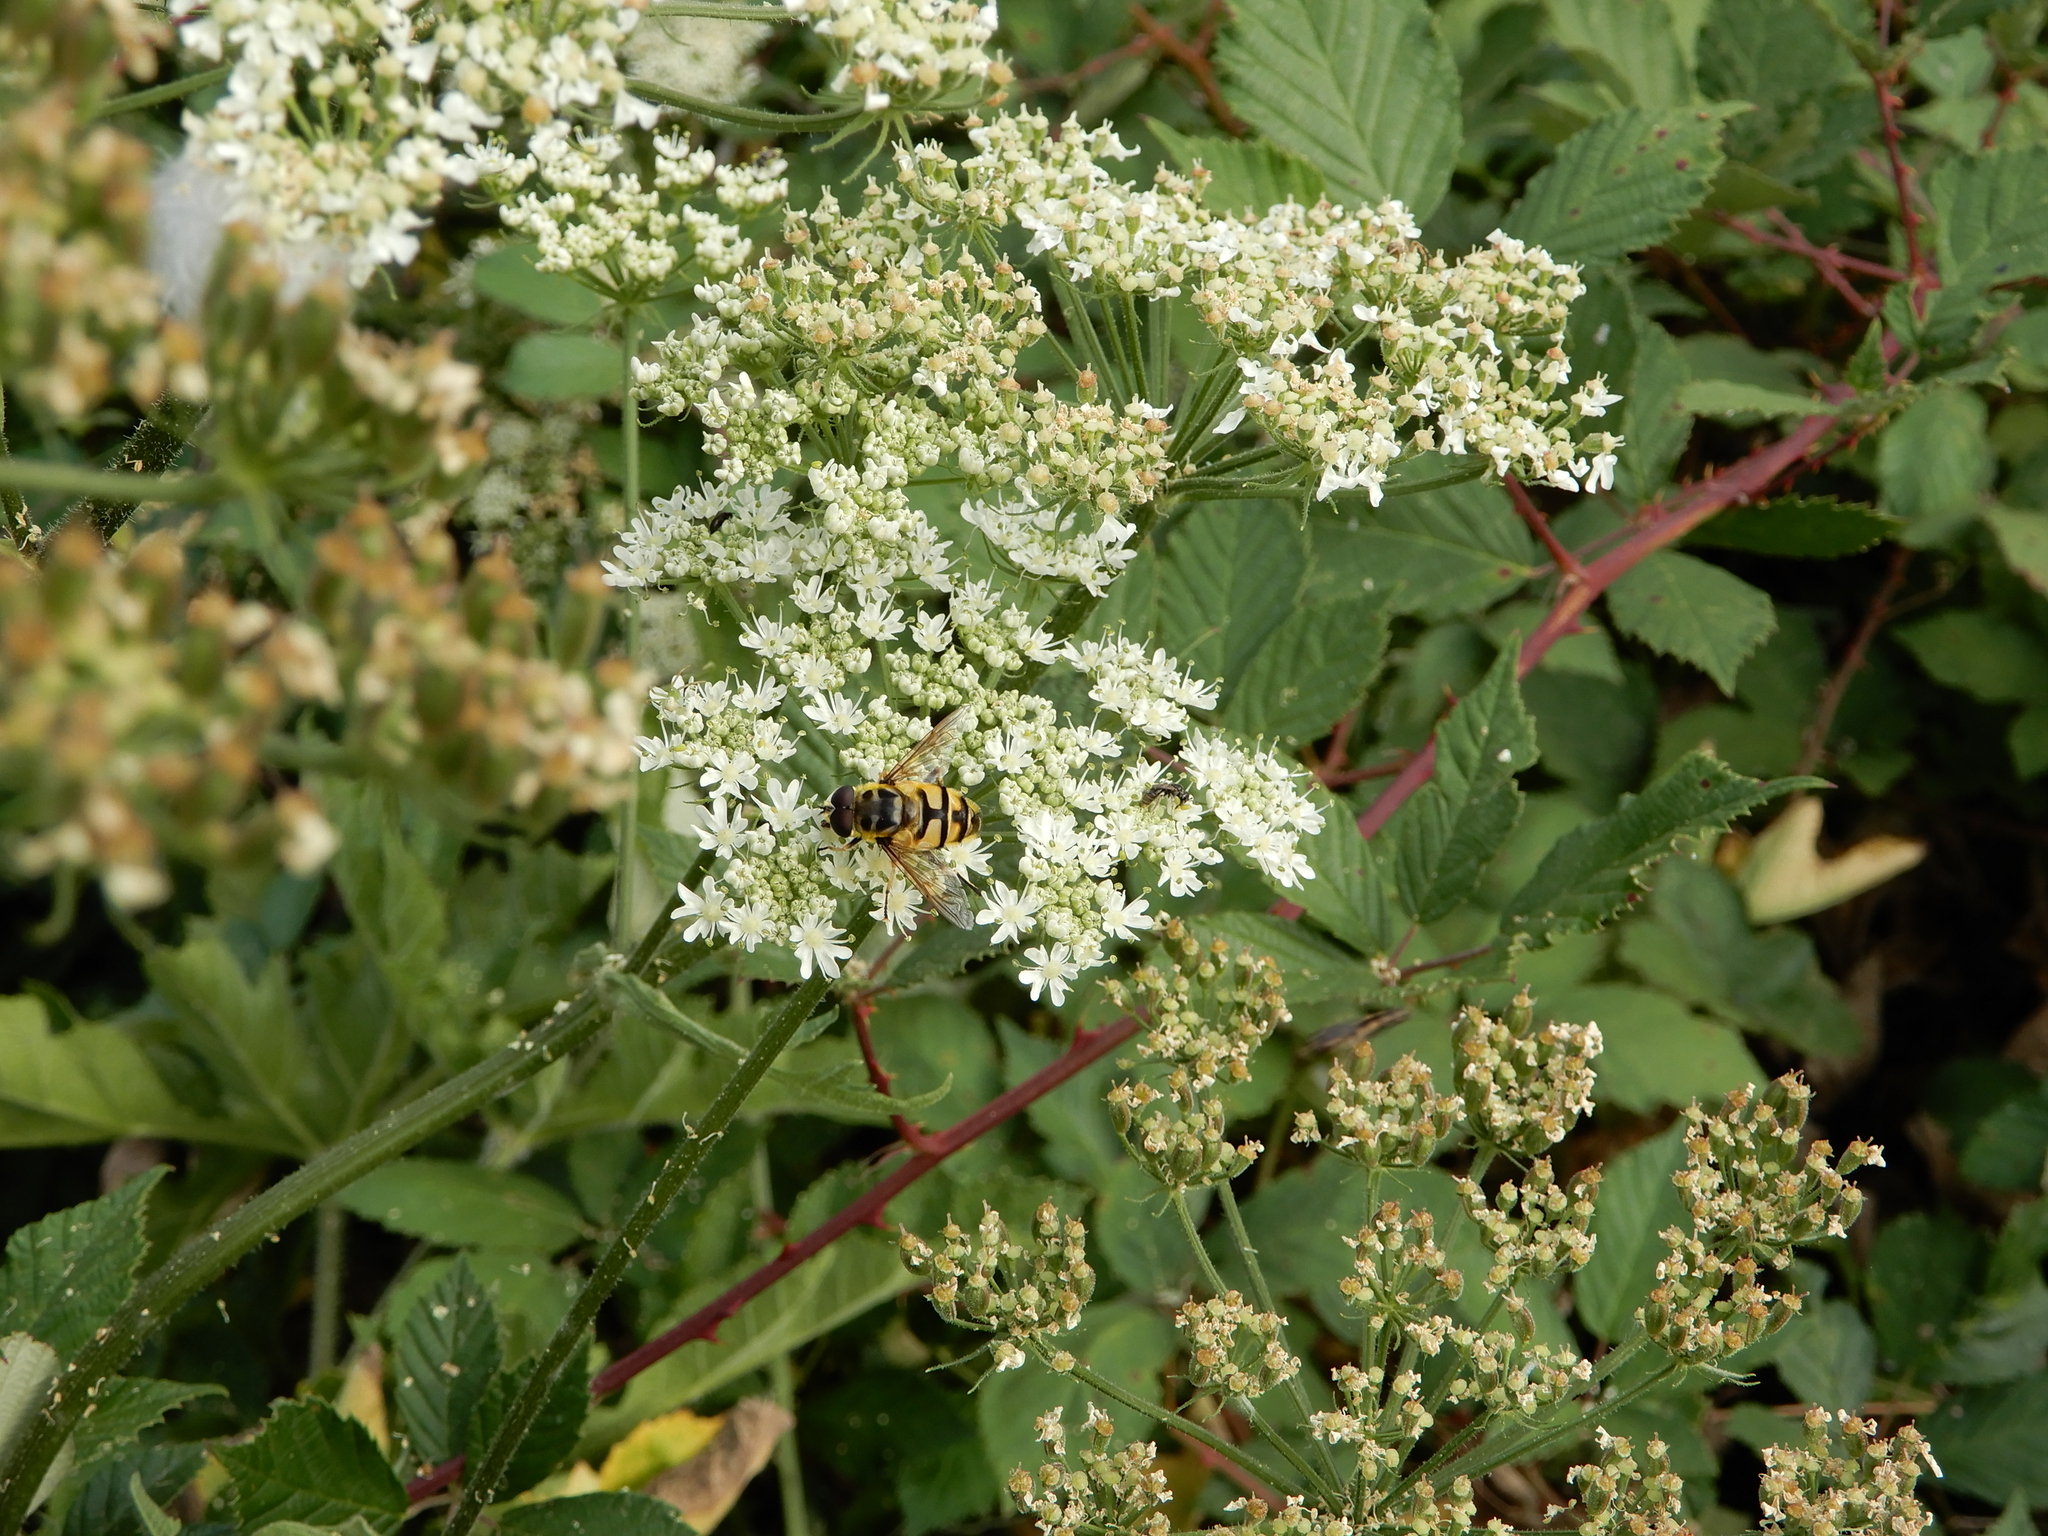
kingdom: Animalia
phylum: Arthropoda
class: Insecta
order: Diptera
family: Syrphidae
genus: Myathropa
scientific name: Myathropa florea
